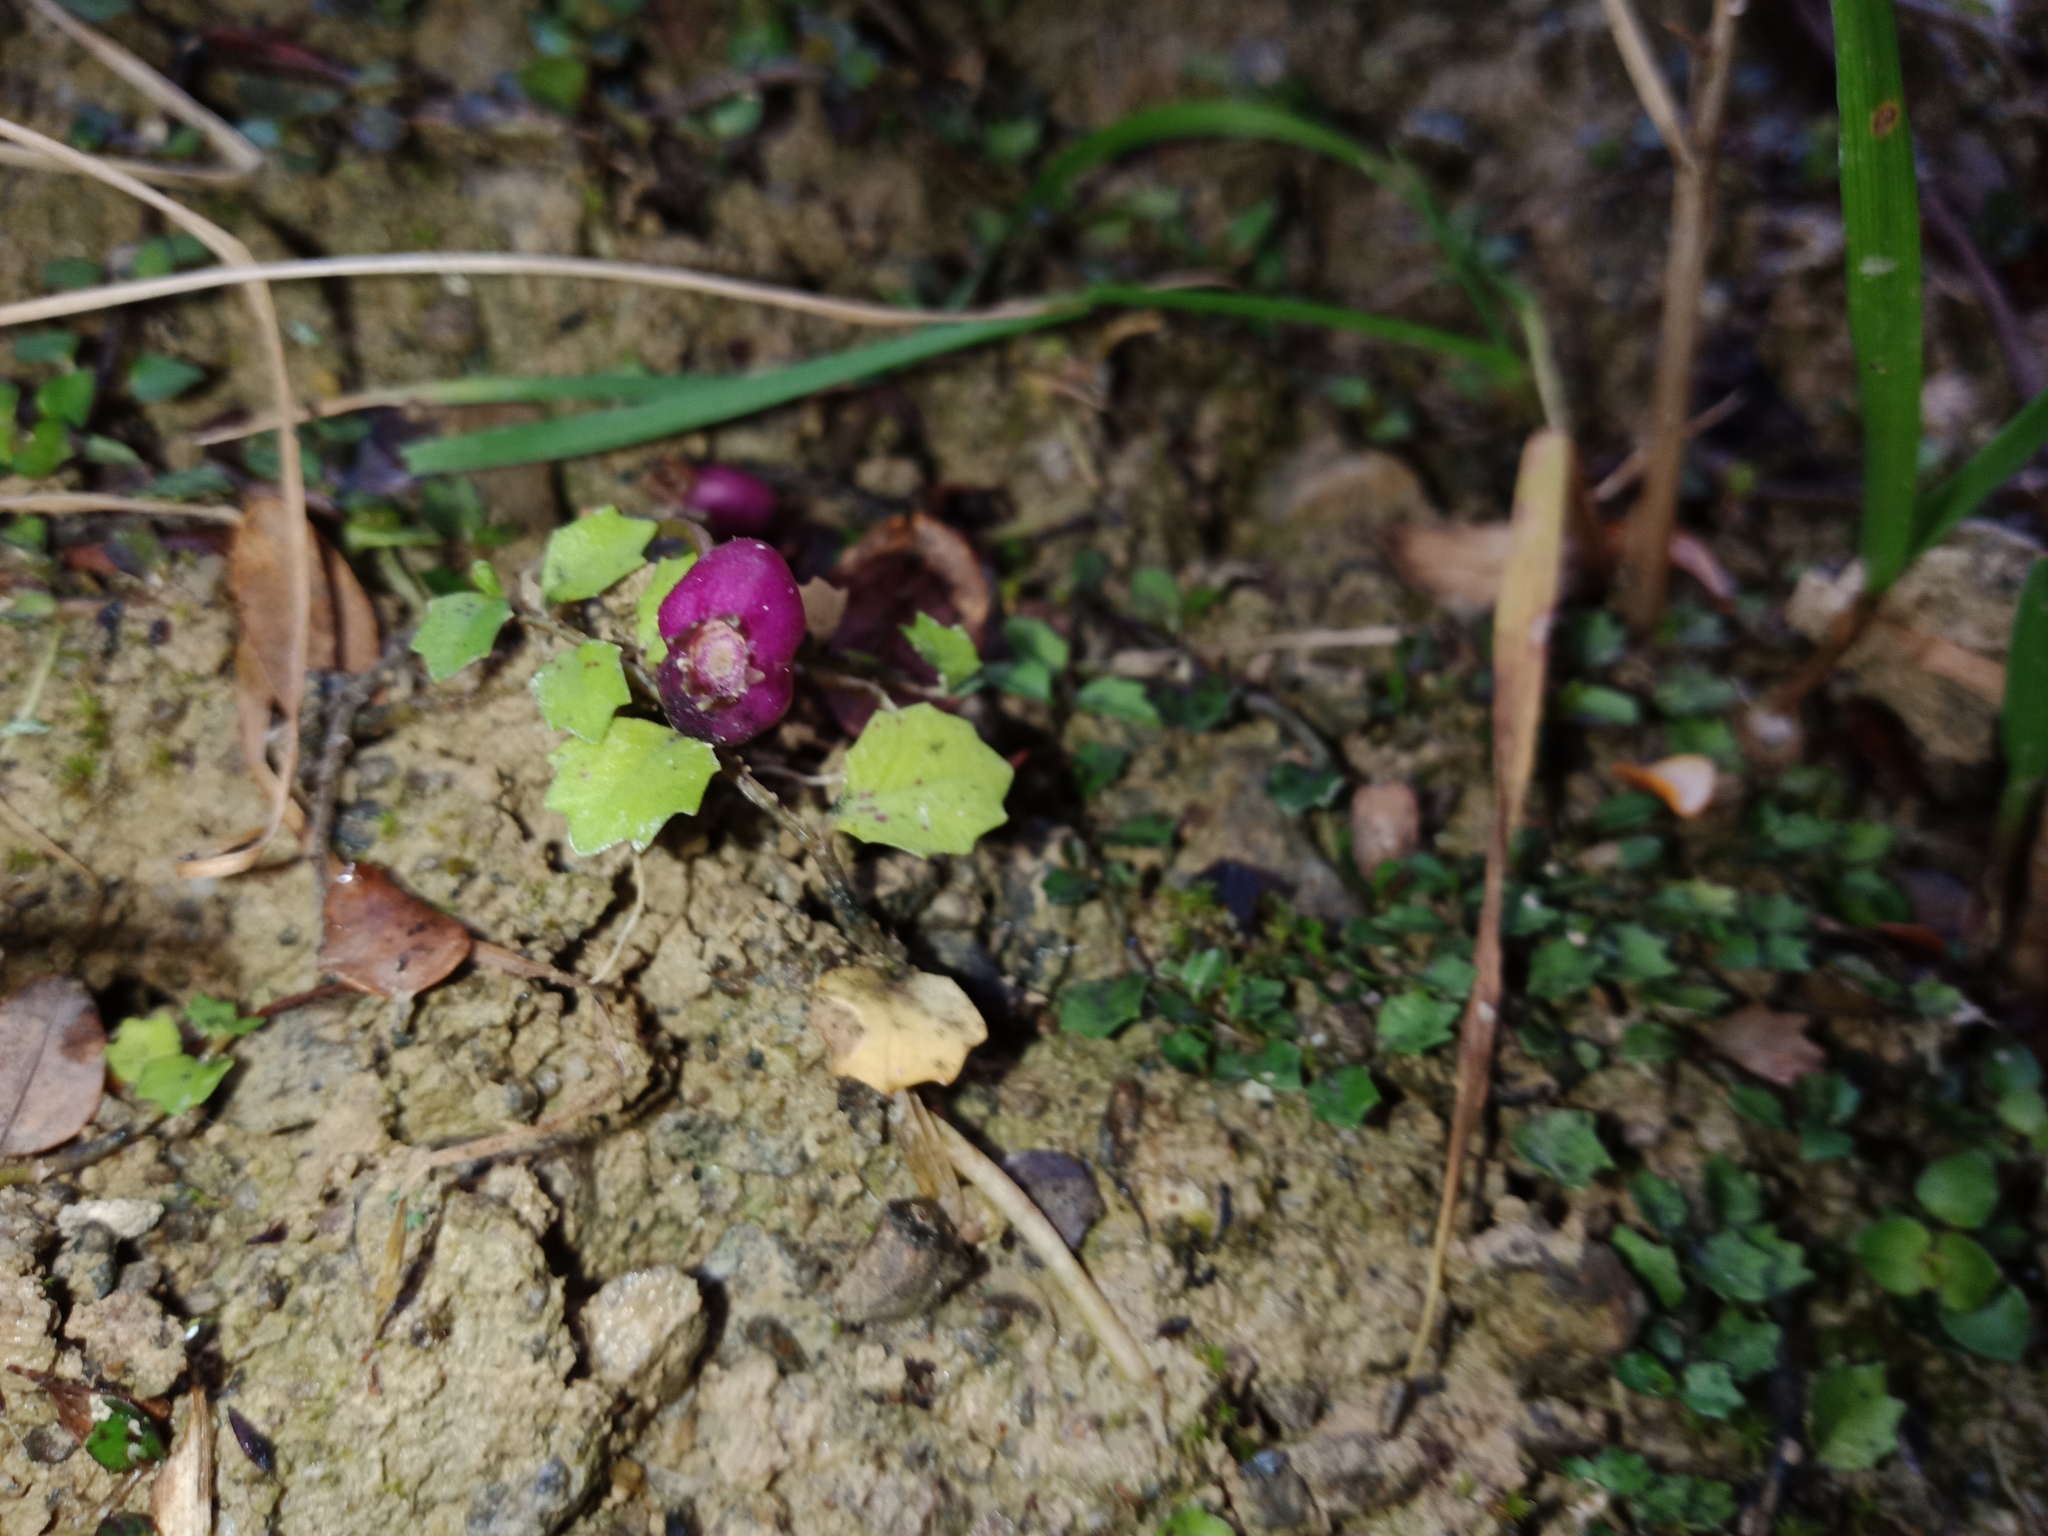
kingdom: Plantae
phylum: Tracheophyta
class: Magnoliopsida
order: Asterales
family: Campanulaceae
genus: Lobelia
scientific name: Lobelia angulata
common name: Lawn lobelia
